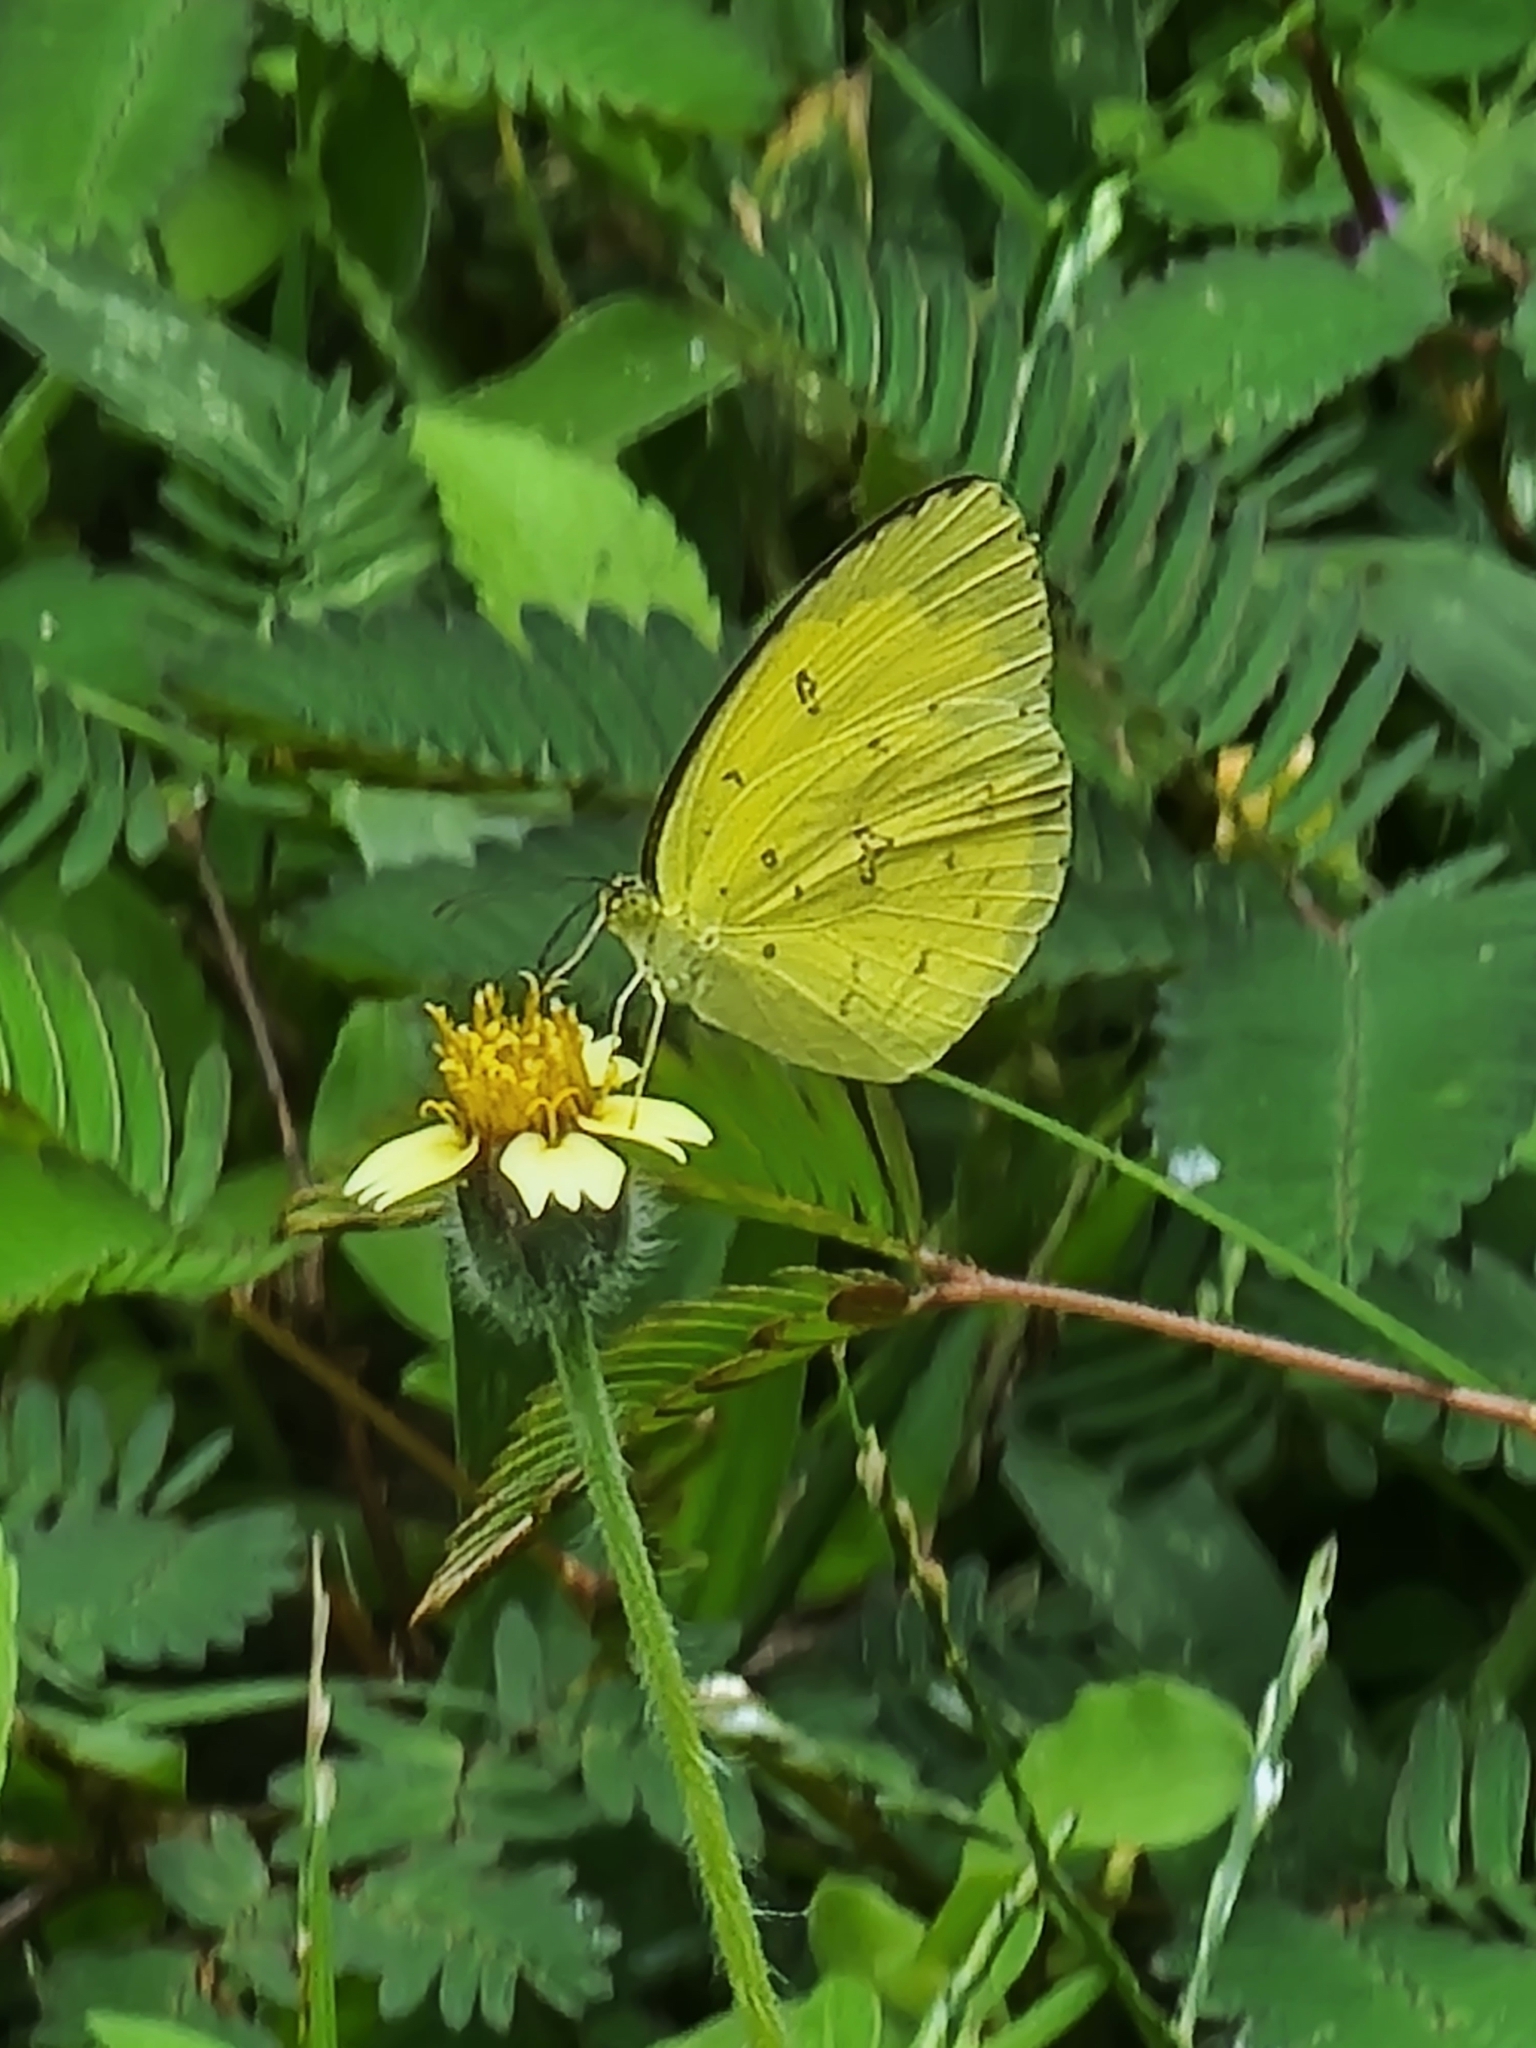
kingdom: Animalia
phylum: Arthropoda
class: Insecta
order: Lepidoptera
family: Pieridae
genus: Eurema
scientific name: Eurema hecabe
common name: Pale grass yellow
